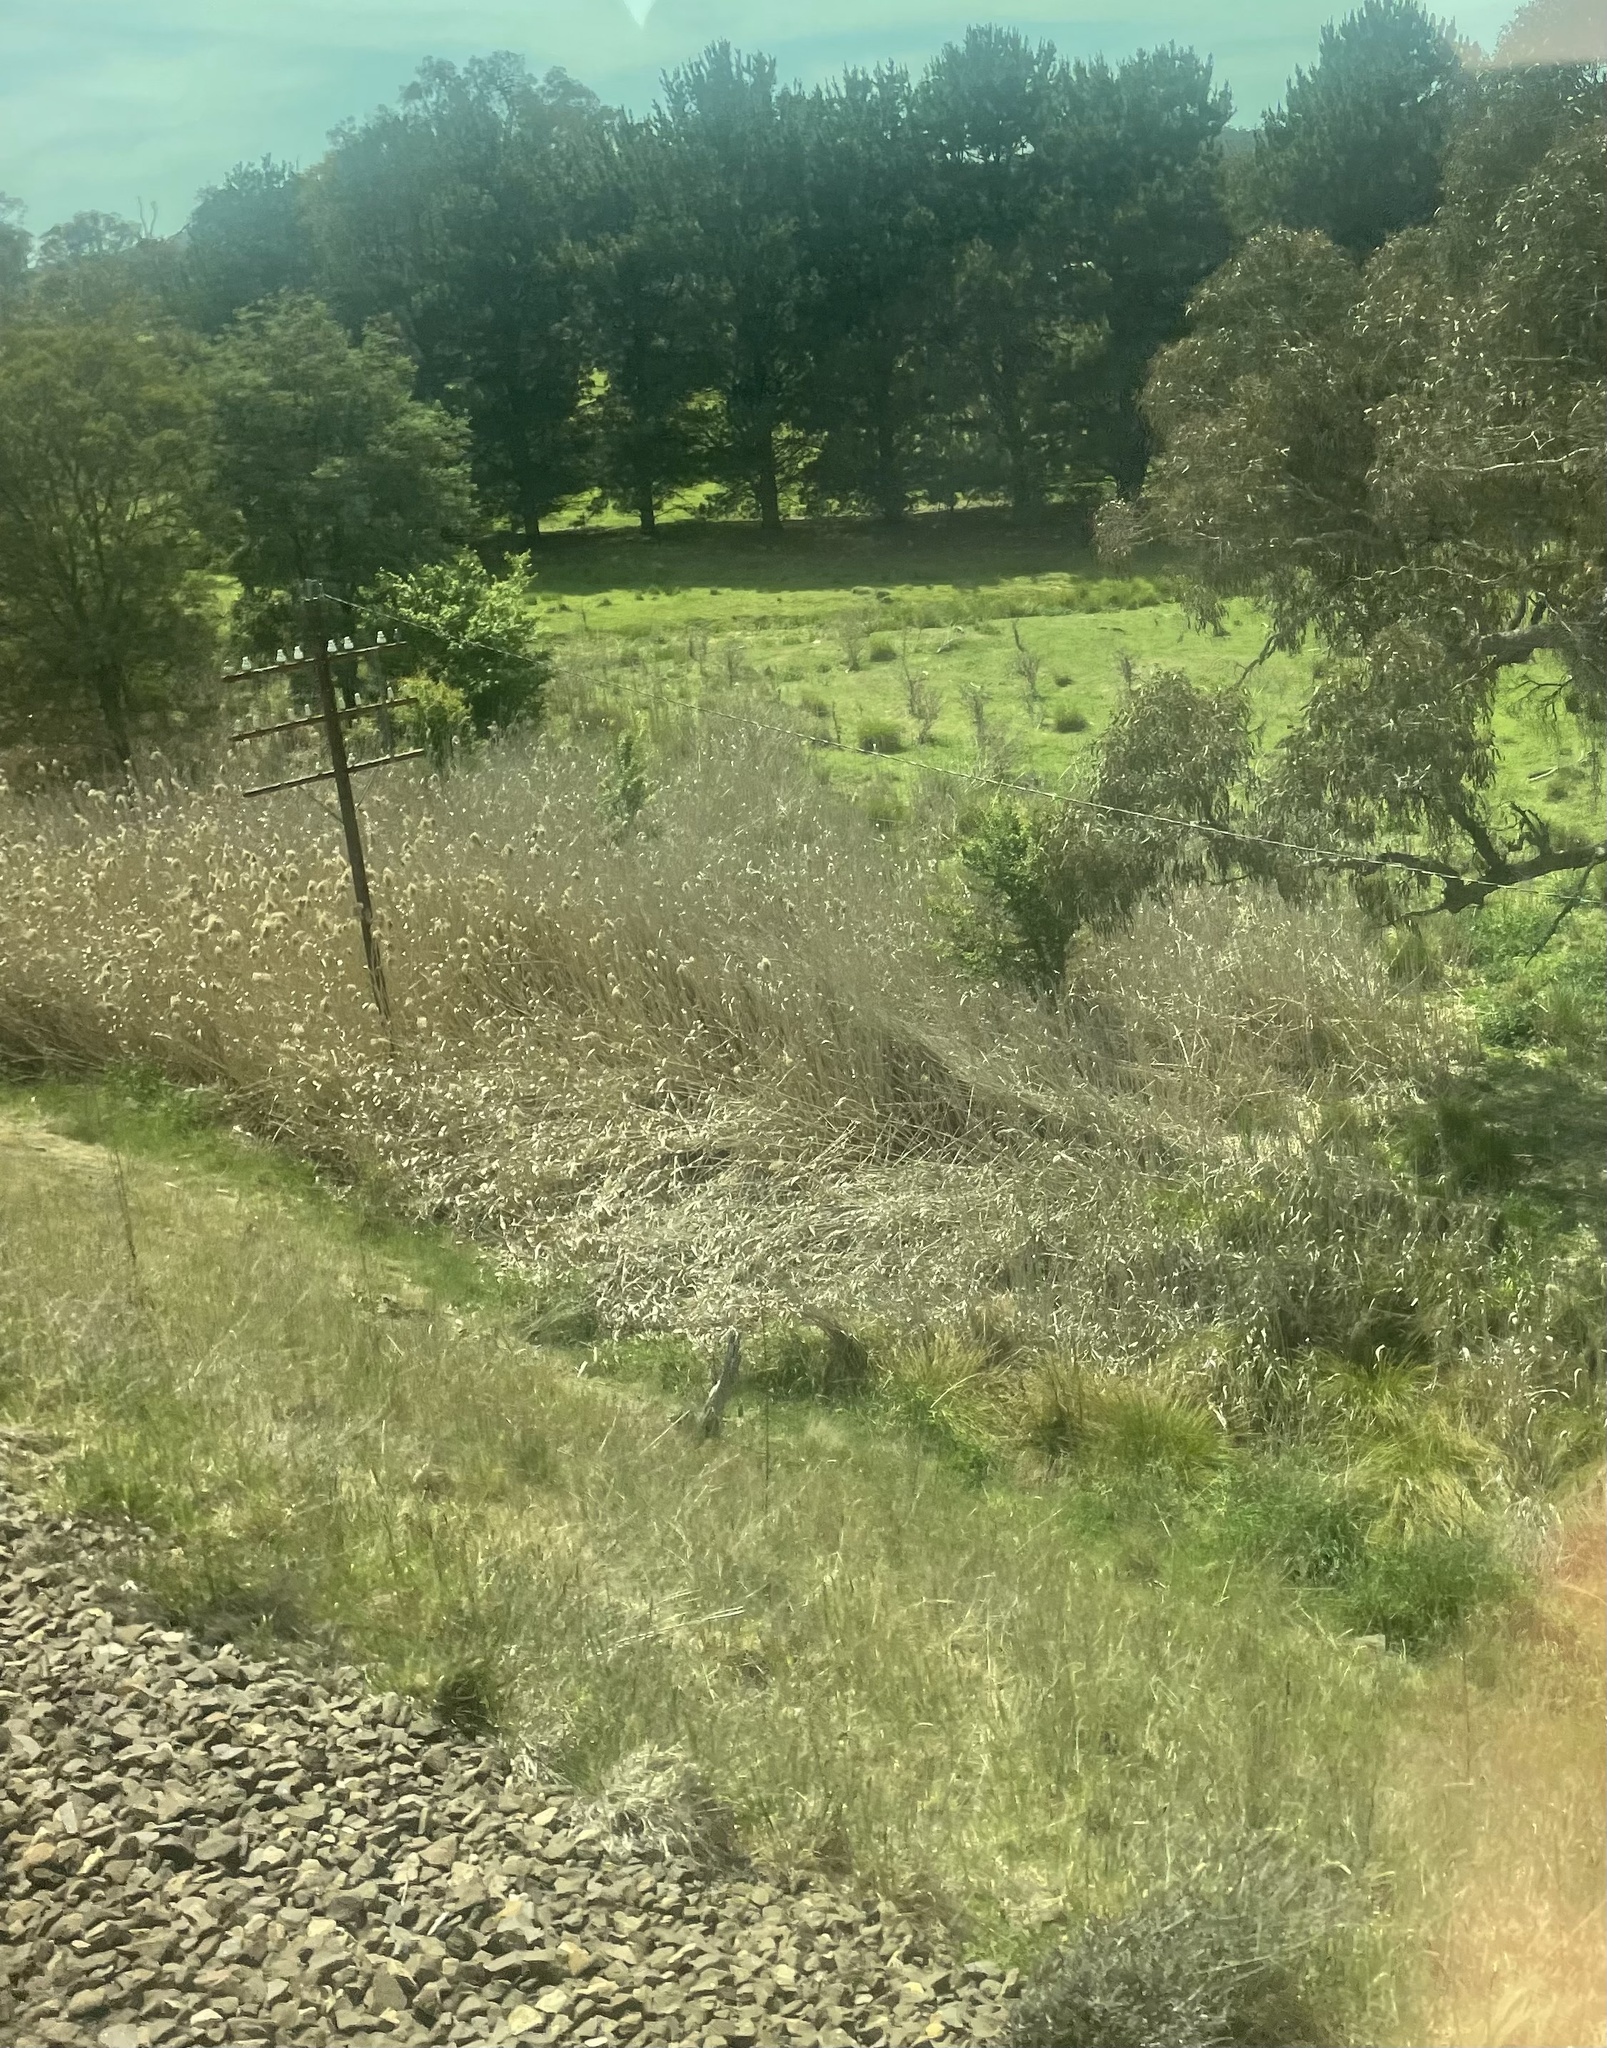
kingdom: Plantae
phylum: Tracheophyta
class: Liliopsida
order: Poales
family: Poaceae
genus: Phragmites
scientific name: Phragmites australis
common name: Common reed
